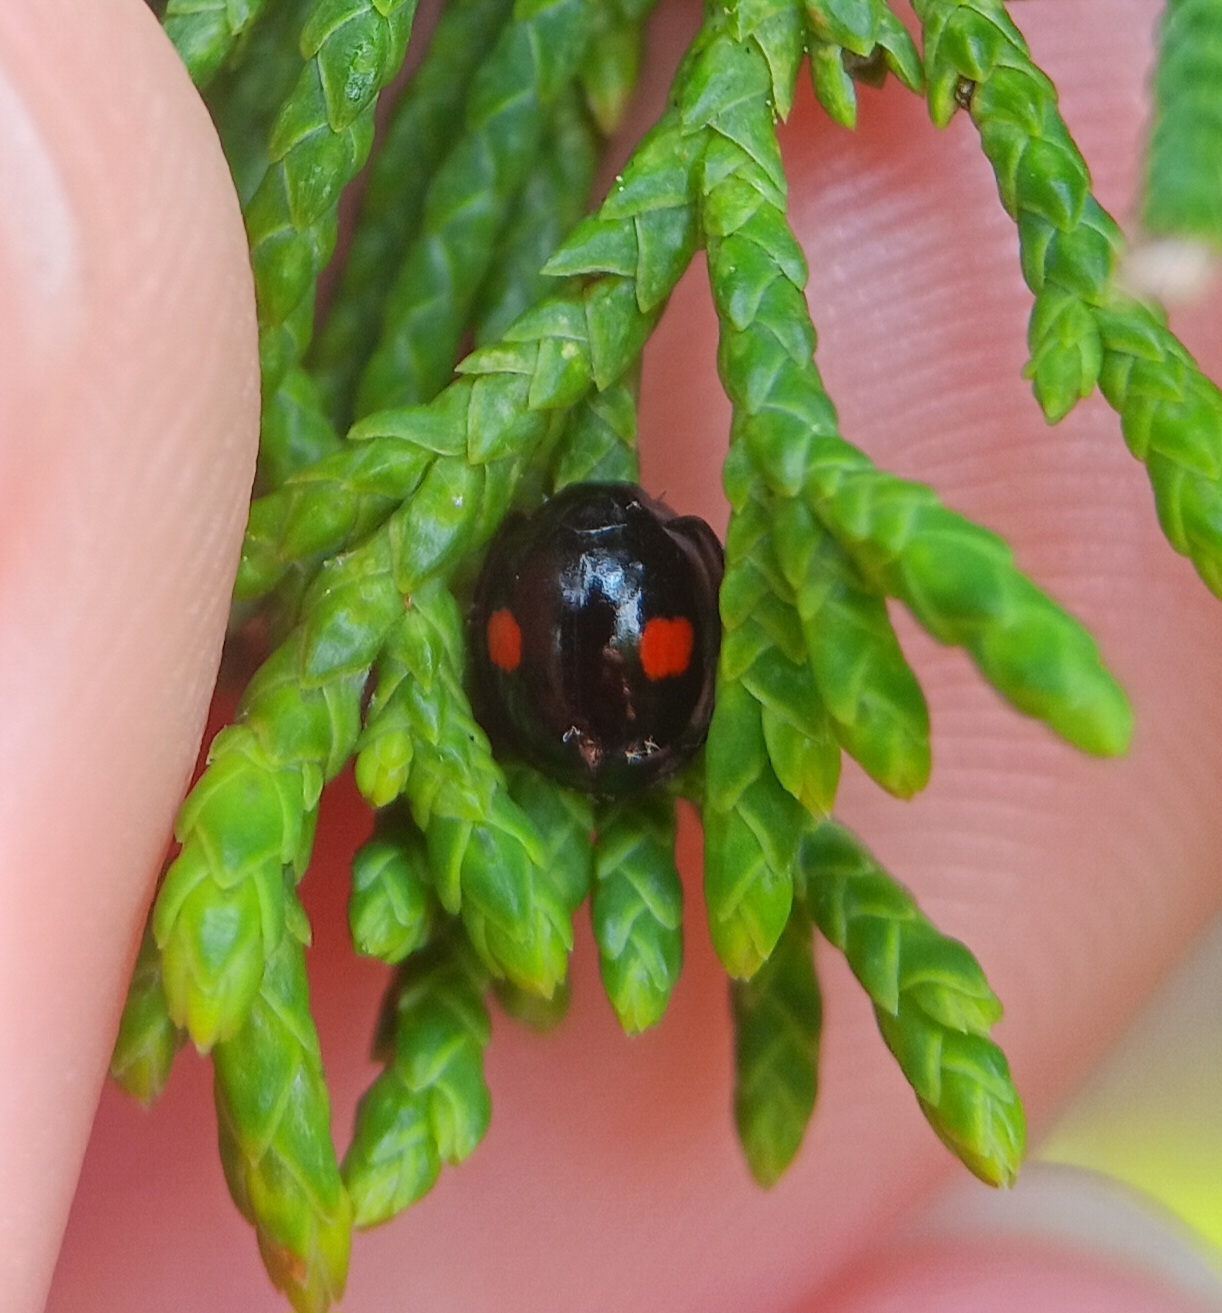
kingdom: Animalia
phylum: Arthropoda
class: Insecta
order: Coleoptera
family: Coccinellidae
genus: Chilocorus
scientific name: Chilocorus stigma
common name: Twicestabbed lady beetle
